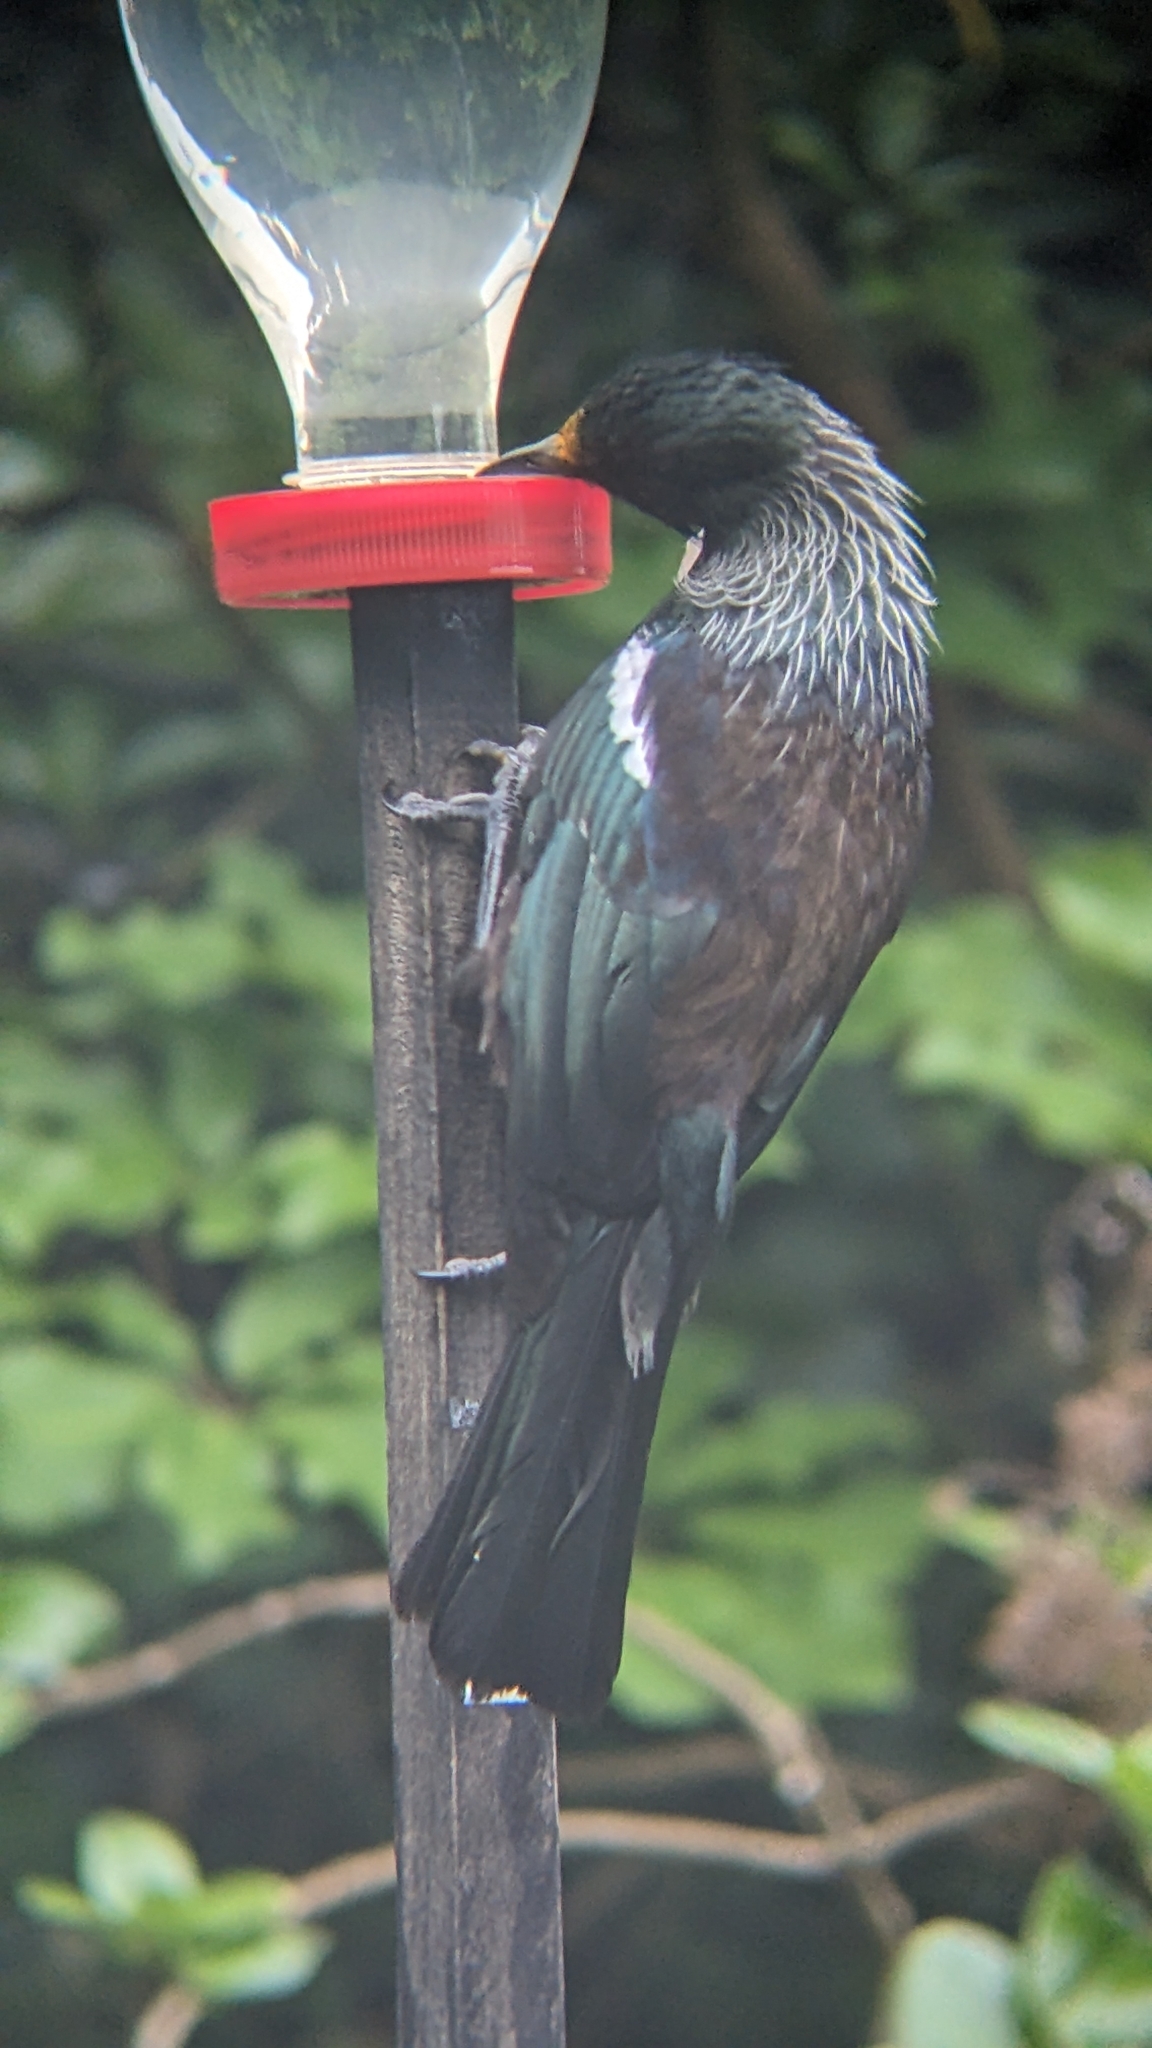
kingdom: Animalia
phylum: Chordata
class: Aves
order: Passeriformes
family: Meliphagidae
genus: Prosthemadera
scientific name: Prosthemadera novaeseelandiae
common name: Tui
